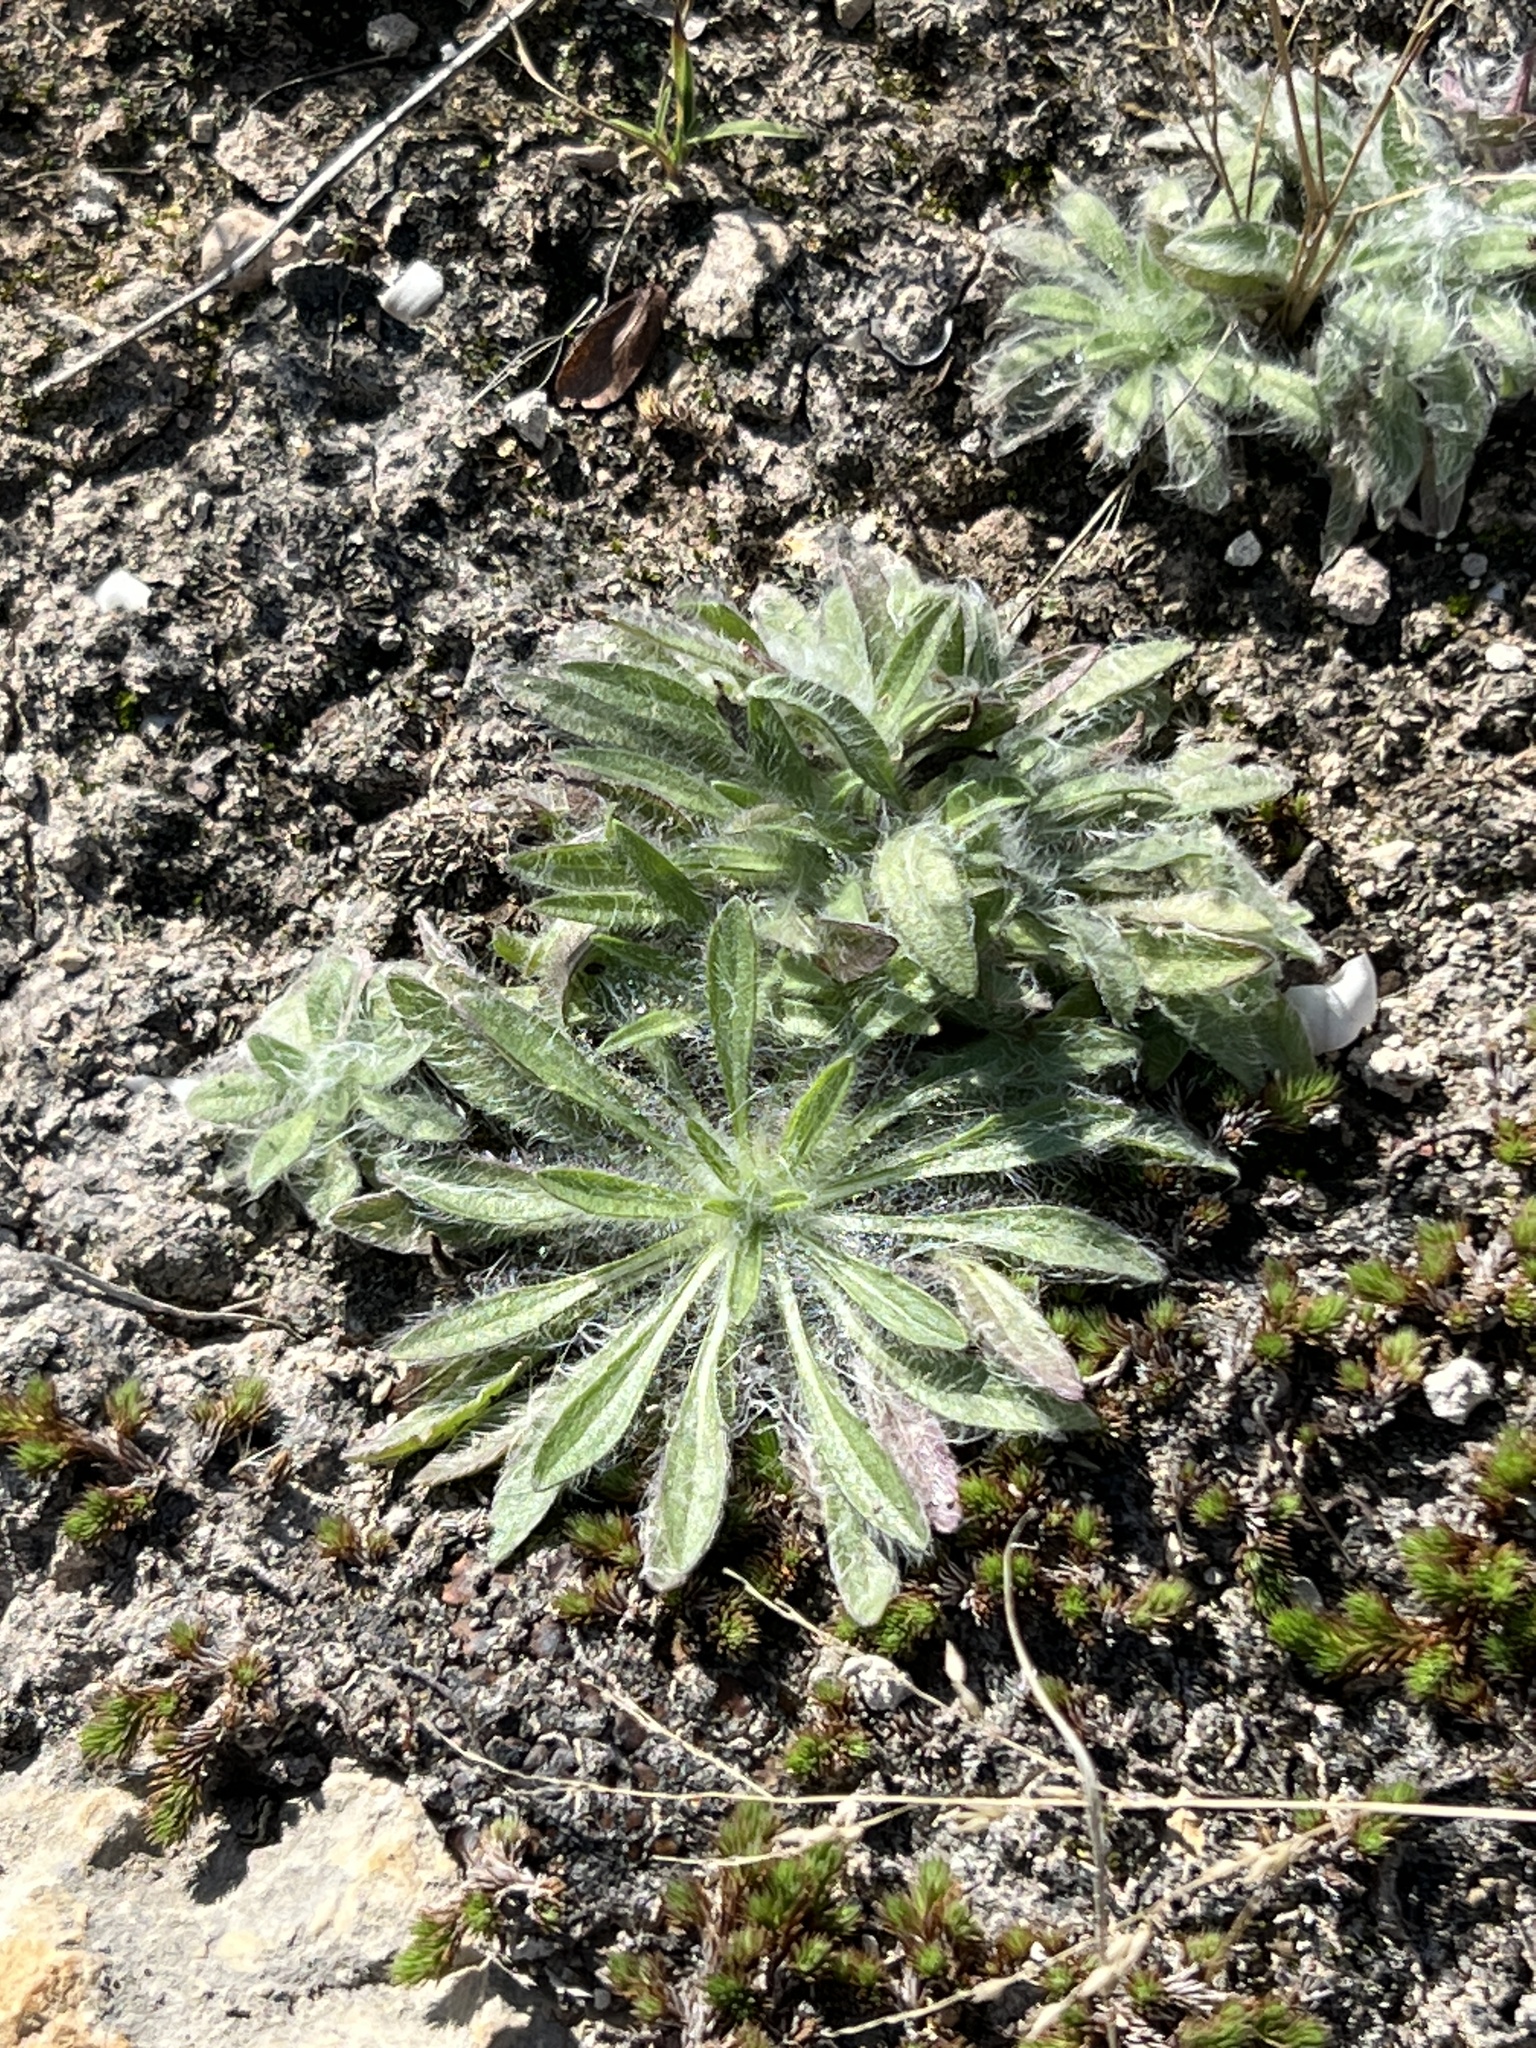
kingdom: Plantae
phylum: Tracheophyta
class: Magnoliopsida
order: Asterales
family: Asteraceae
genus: Erigeron
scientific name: Erigeron canadensis
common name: Canadian fleabane
